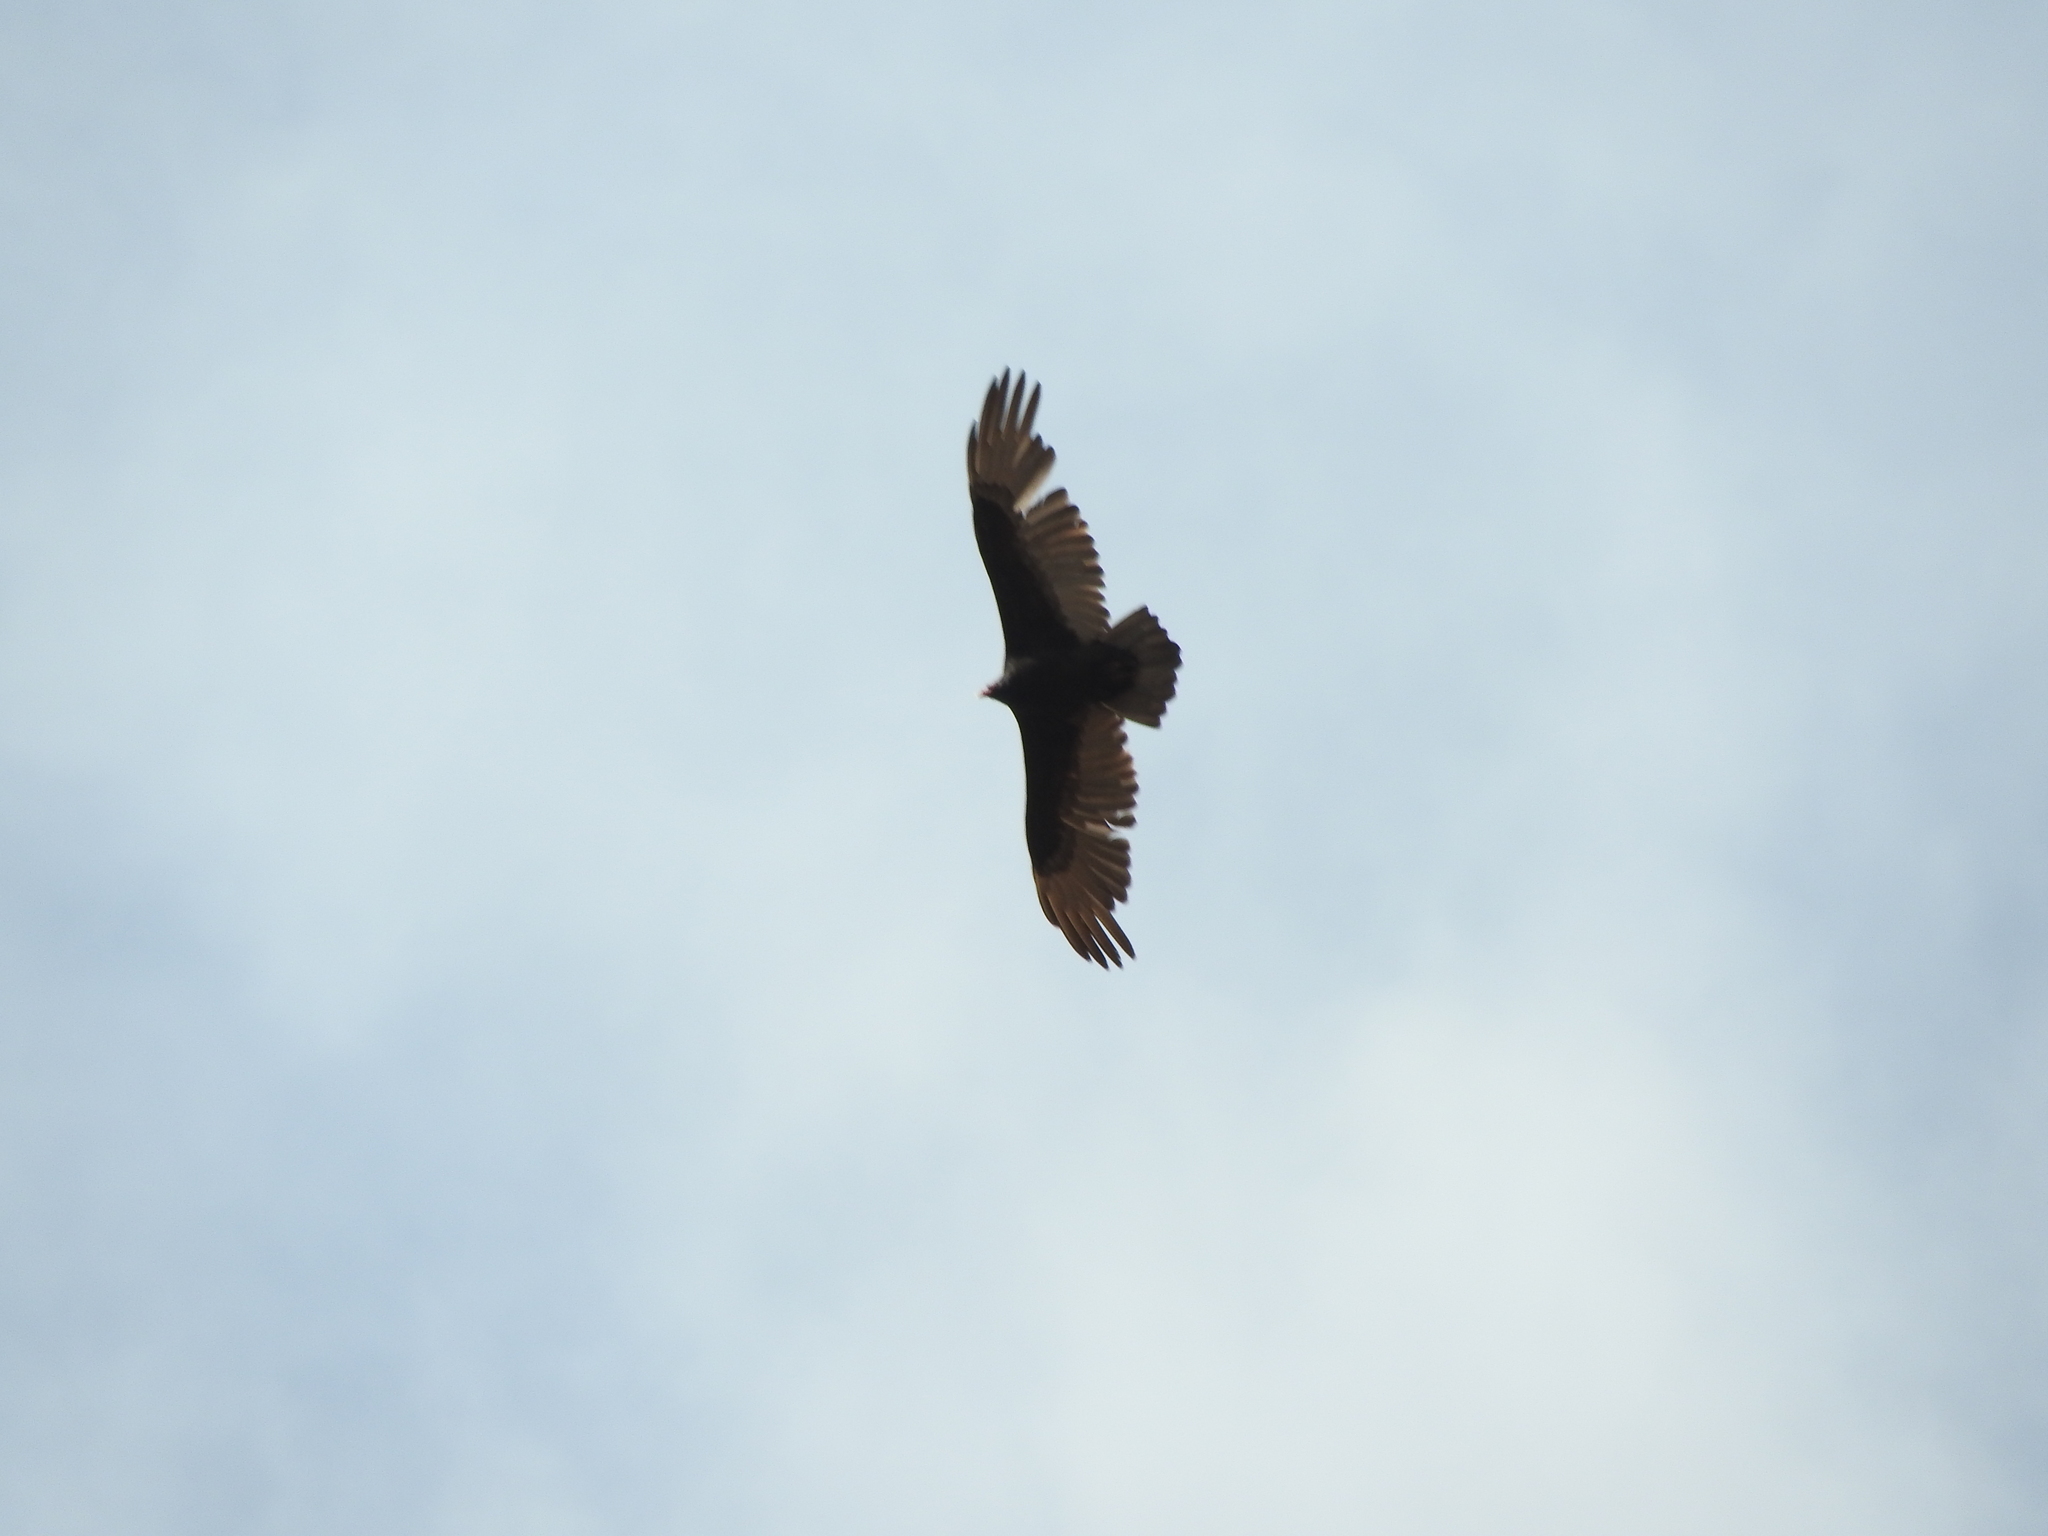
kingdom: Animalia
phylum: Chordata
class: Aves
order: Accipitriformes
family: Cathartidae
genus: Cathartes
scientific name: Cathartes aura
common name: Turkey vulture
